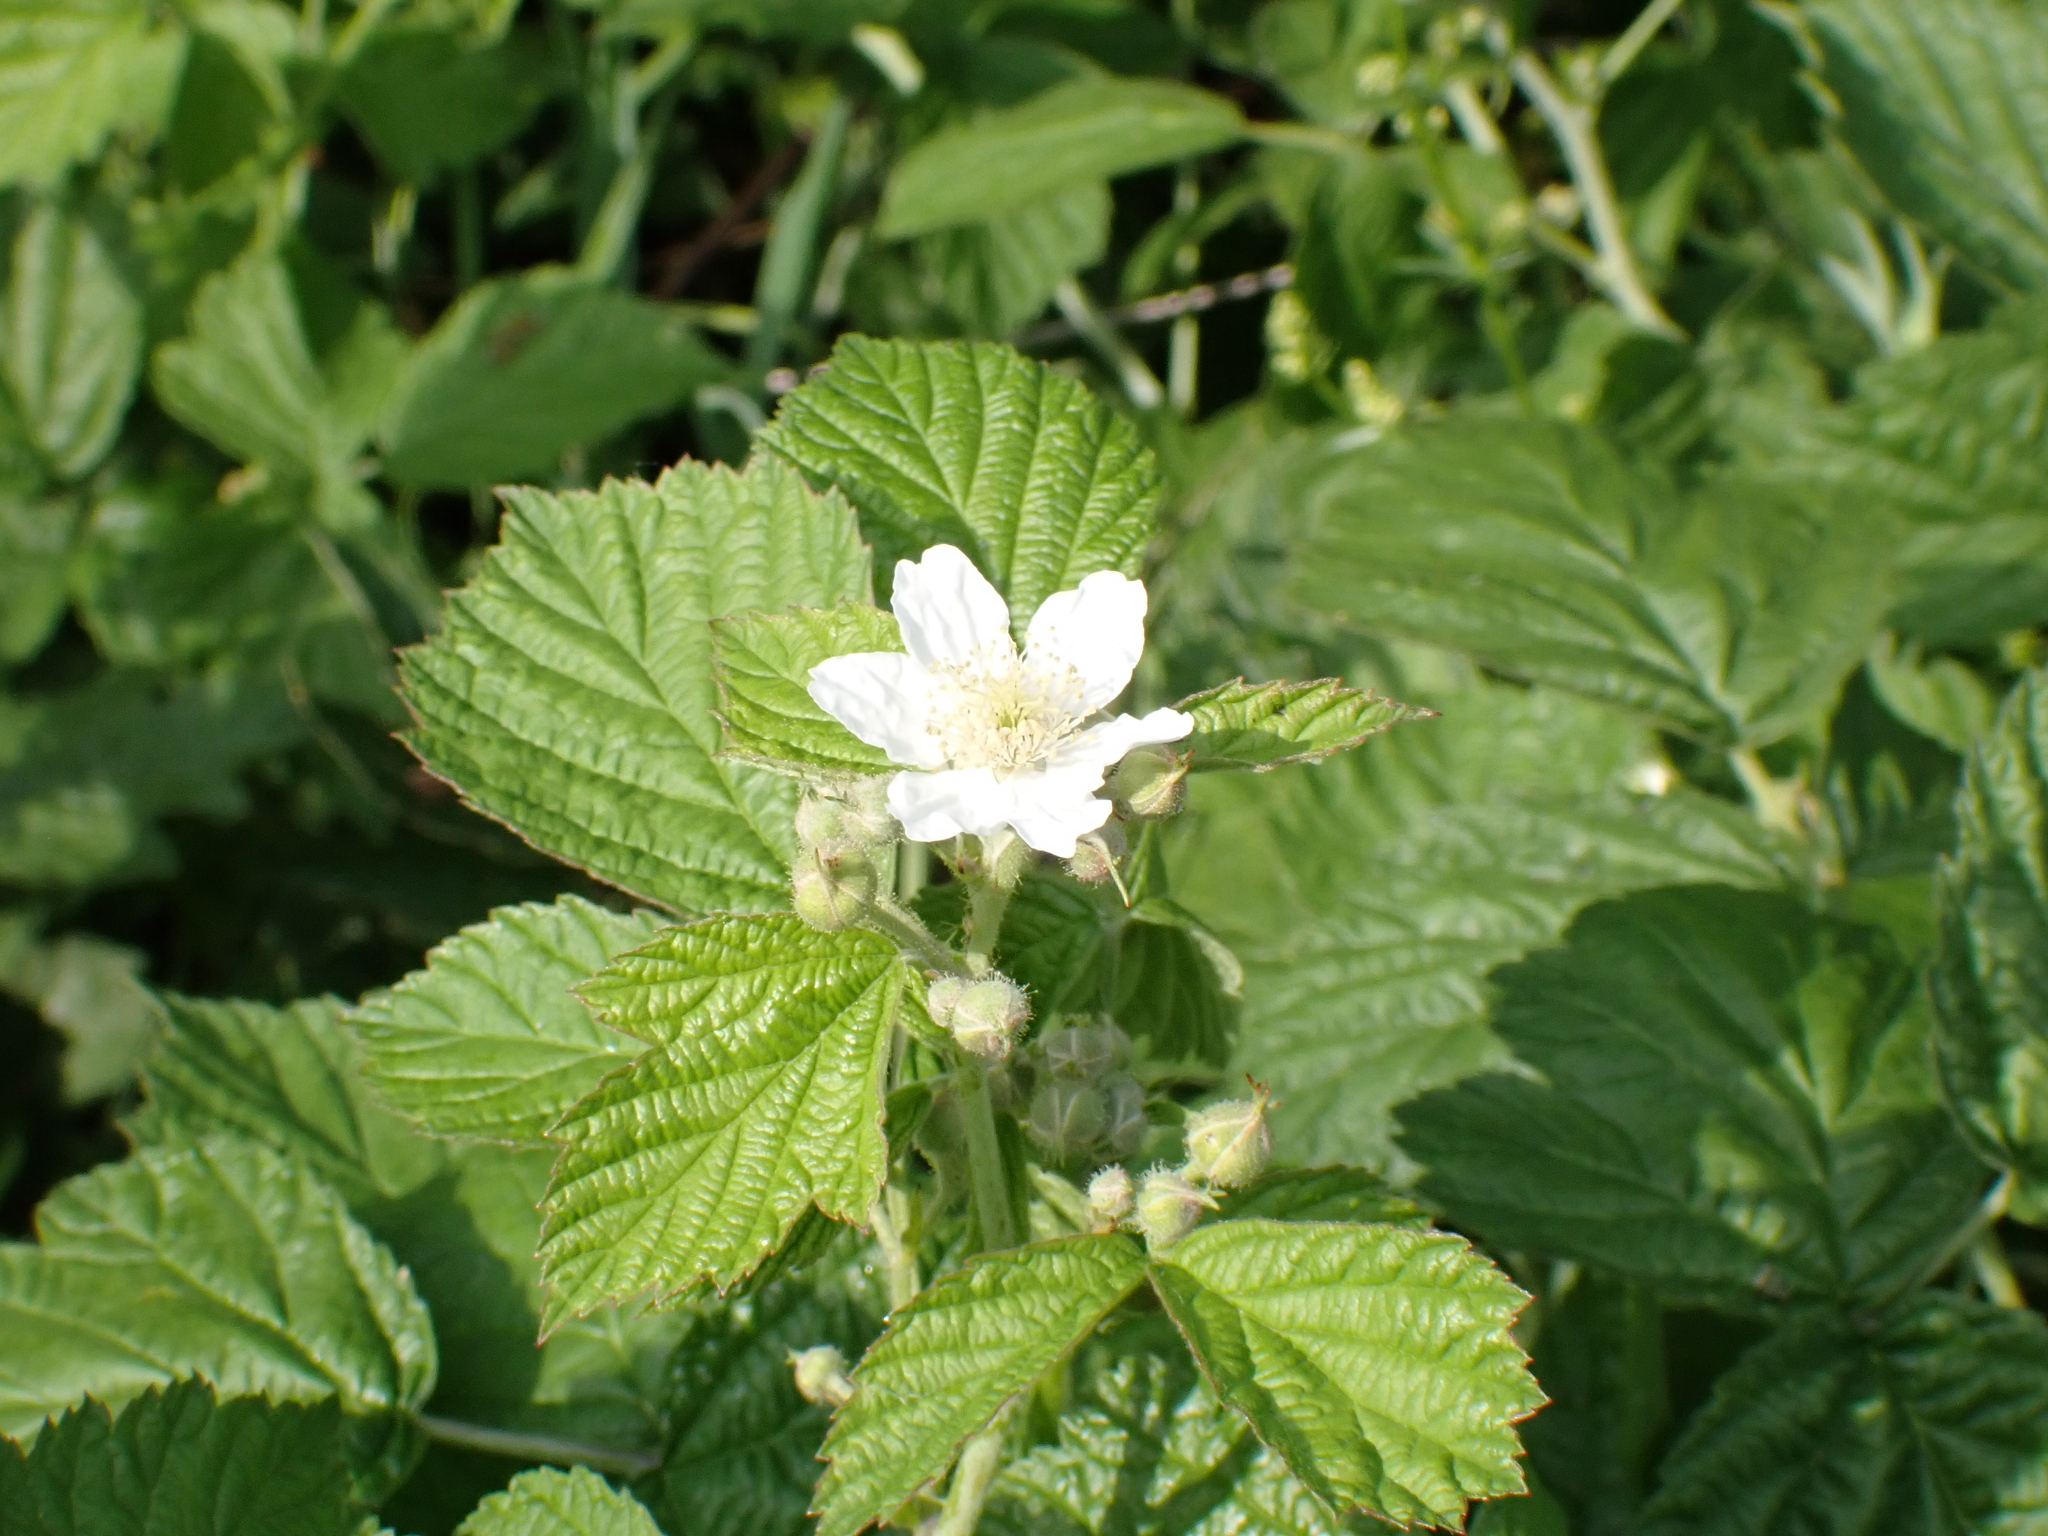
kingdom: Plantae
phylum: Tracheophyta
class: Magnoliopsida
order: Rosales
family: Rosaceae
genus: Rubus
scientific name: Rubus caesius
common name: Dewberry
